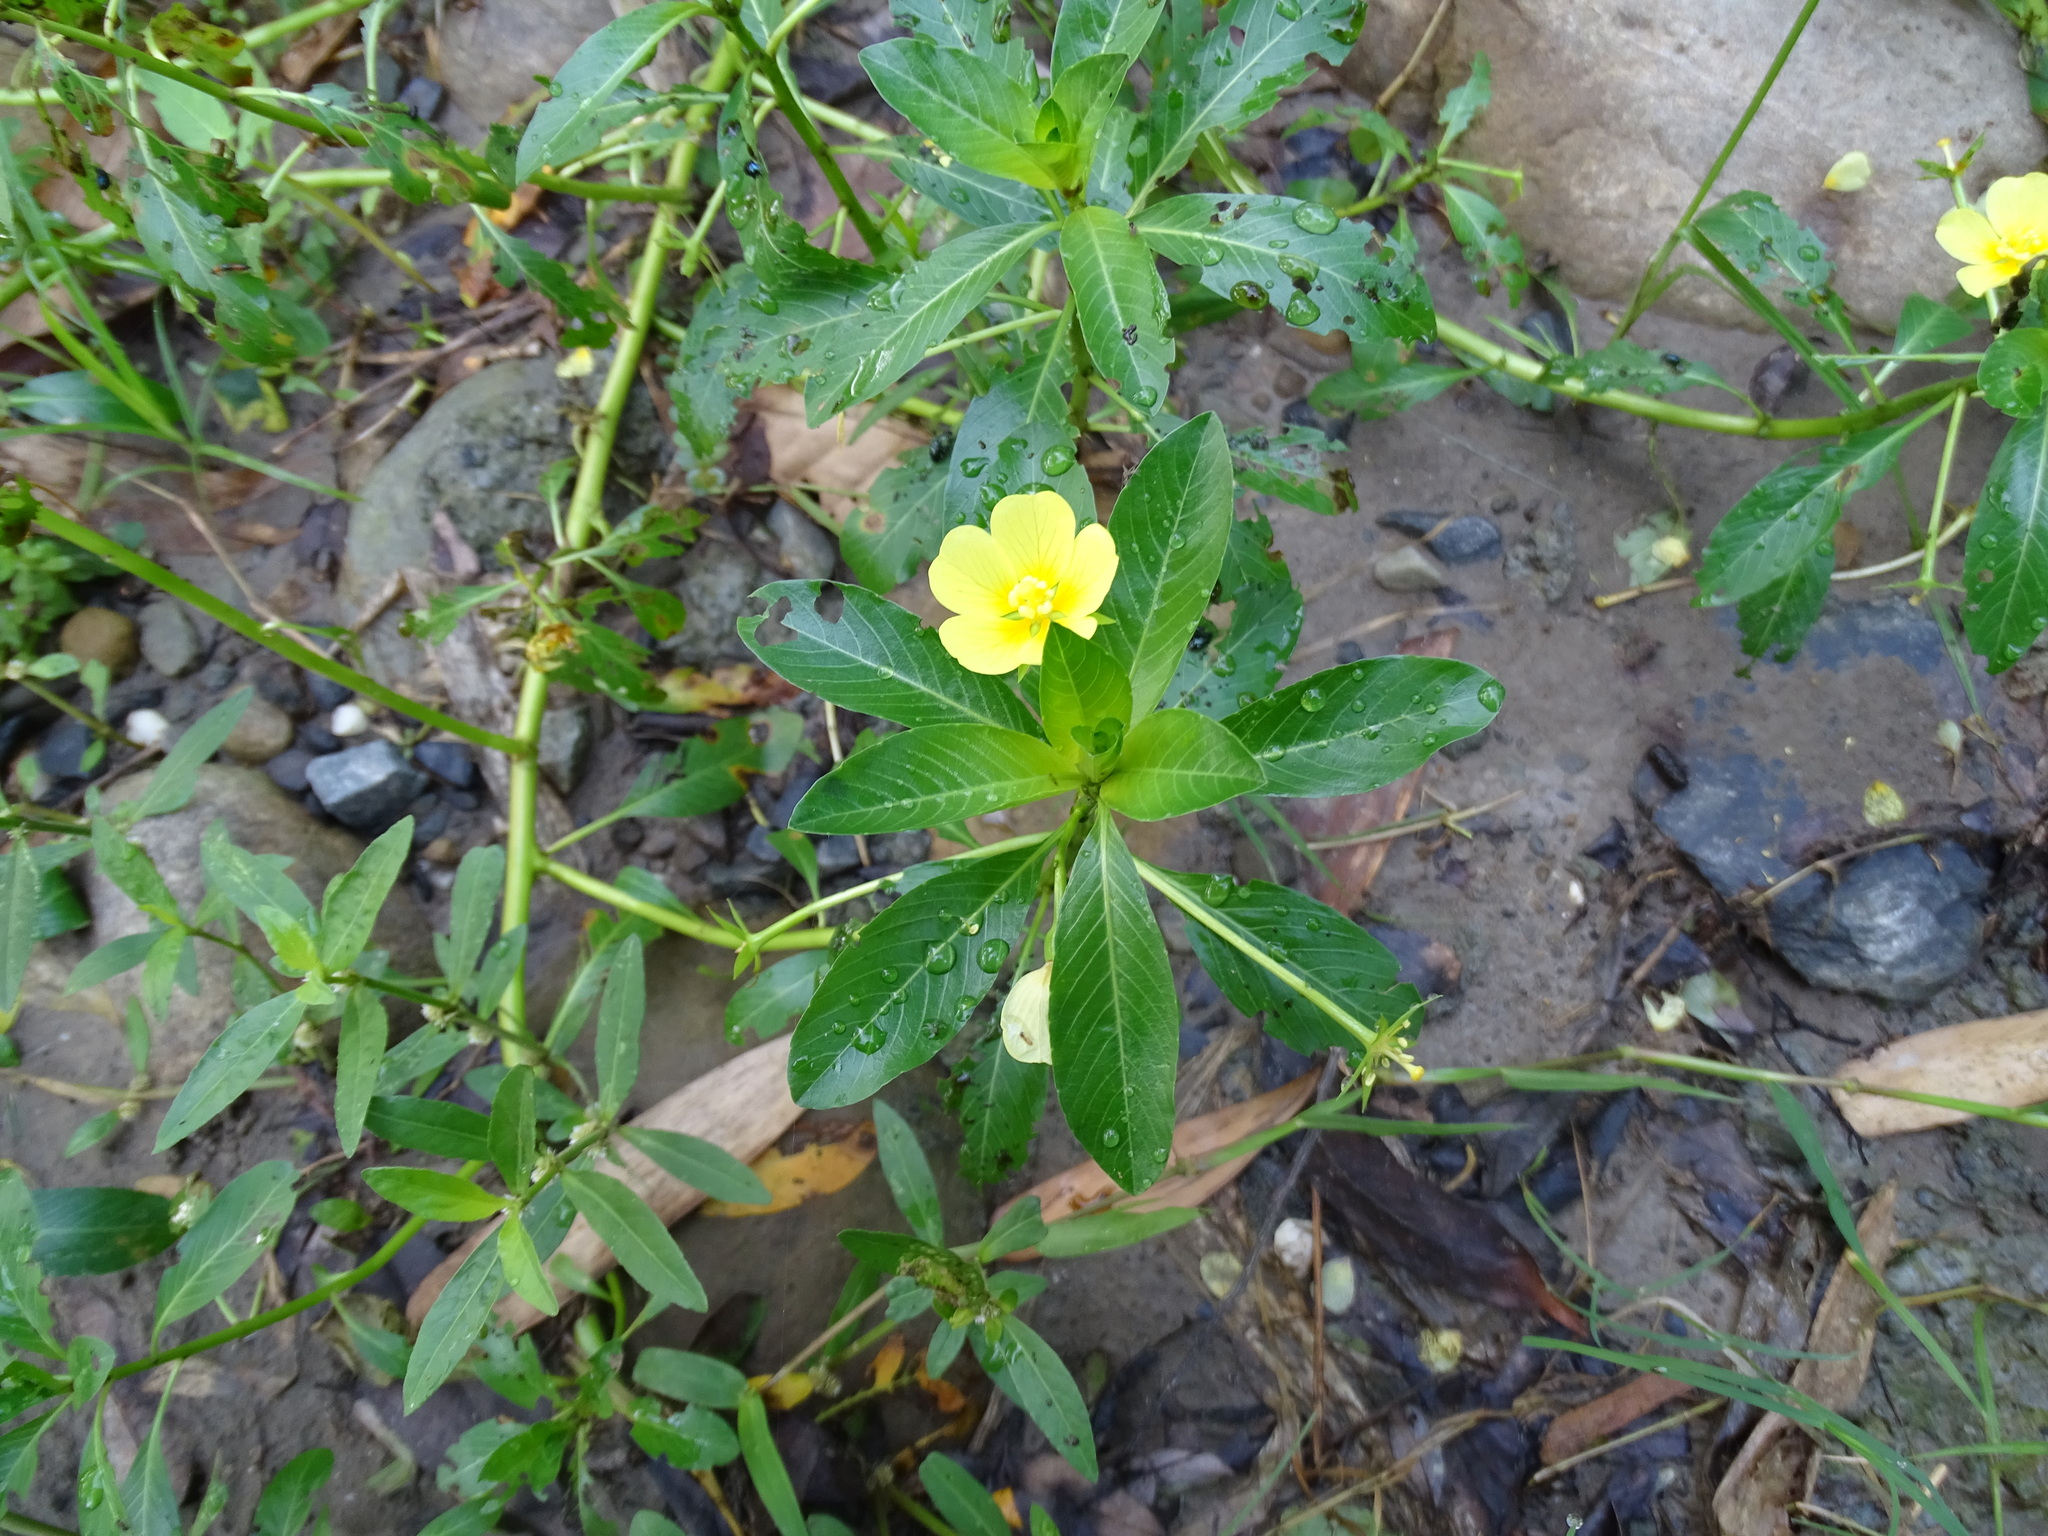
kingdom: Plantae
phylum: Tracheophyta
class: Magnoliopsida
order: Myrtales
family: Onagraceae
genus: Ludwigia
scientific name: Ludwigia taiwanensis
